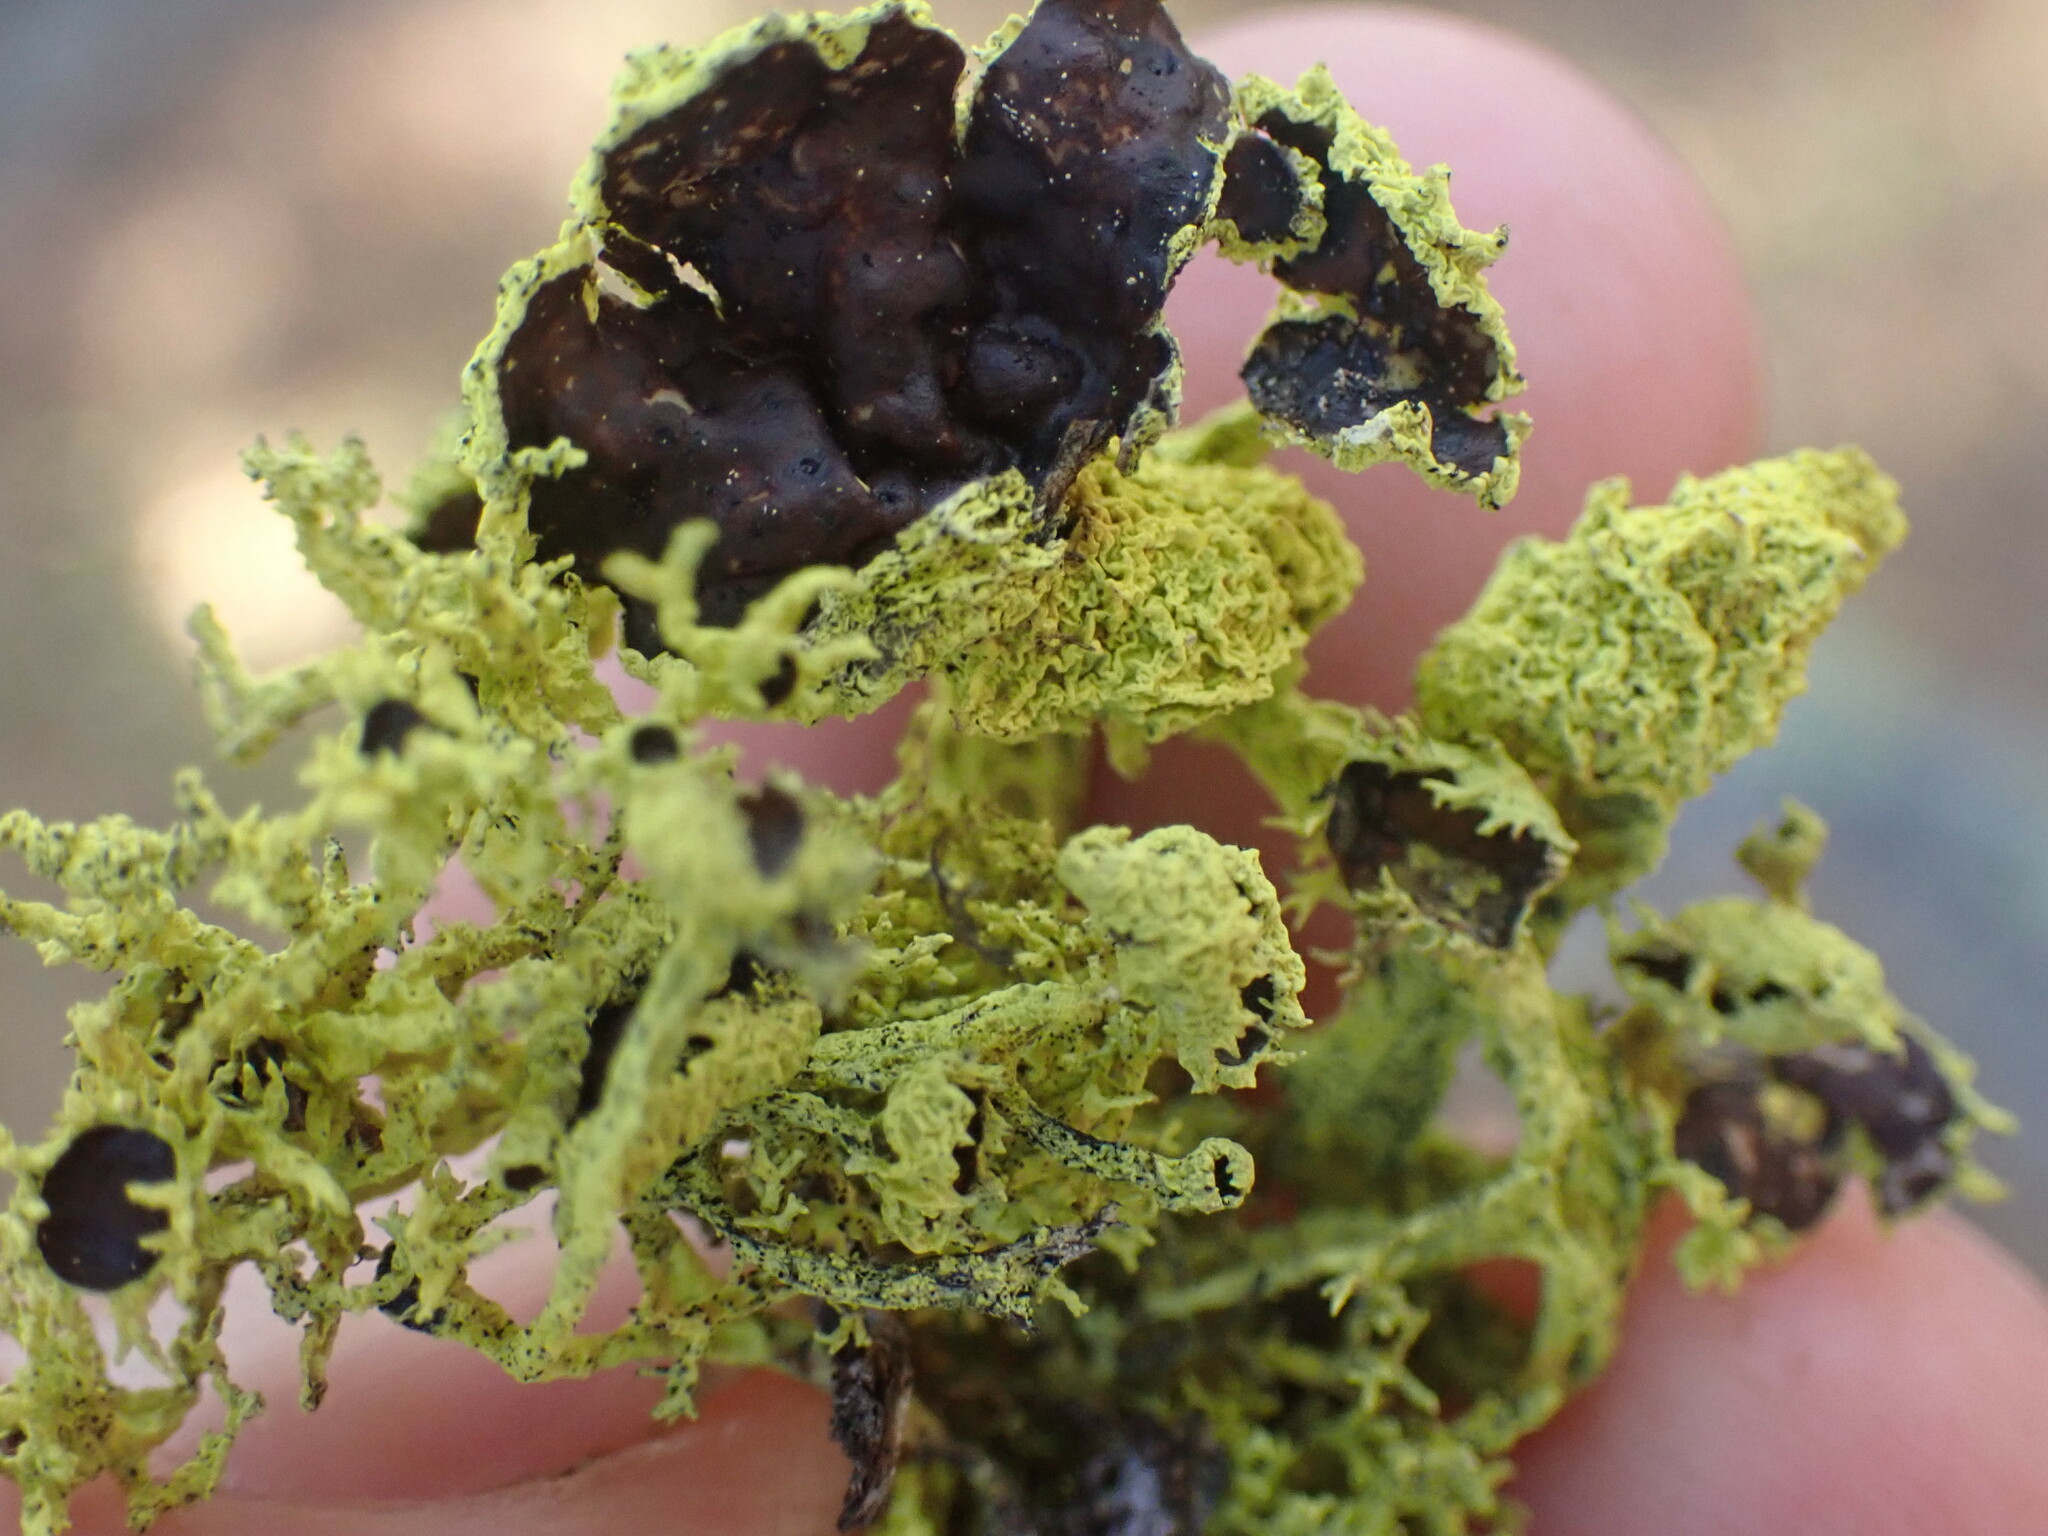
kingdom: Fungi
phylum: Ascomycota
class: Lecanoromycetes
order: Lecanorales
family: Parmeliaceae
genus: Letharia
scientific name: Letharia columbiana
